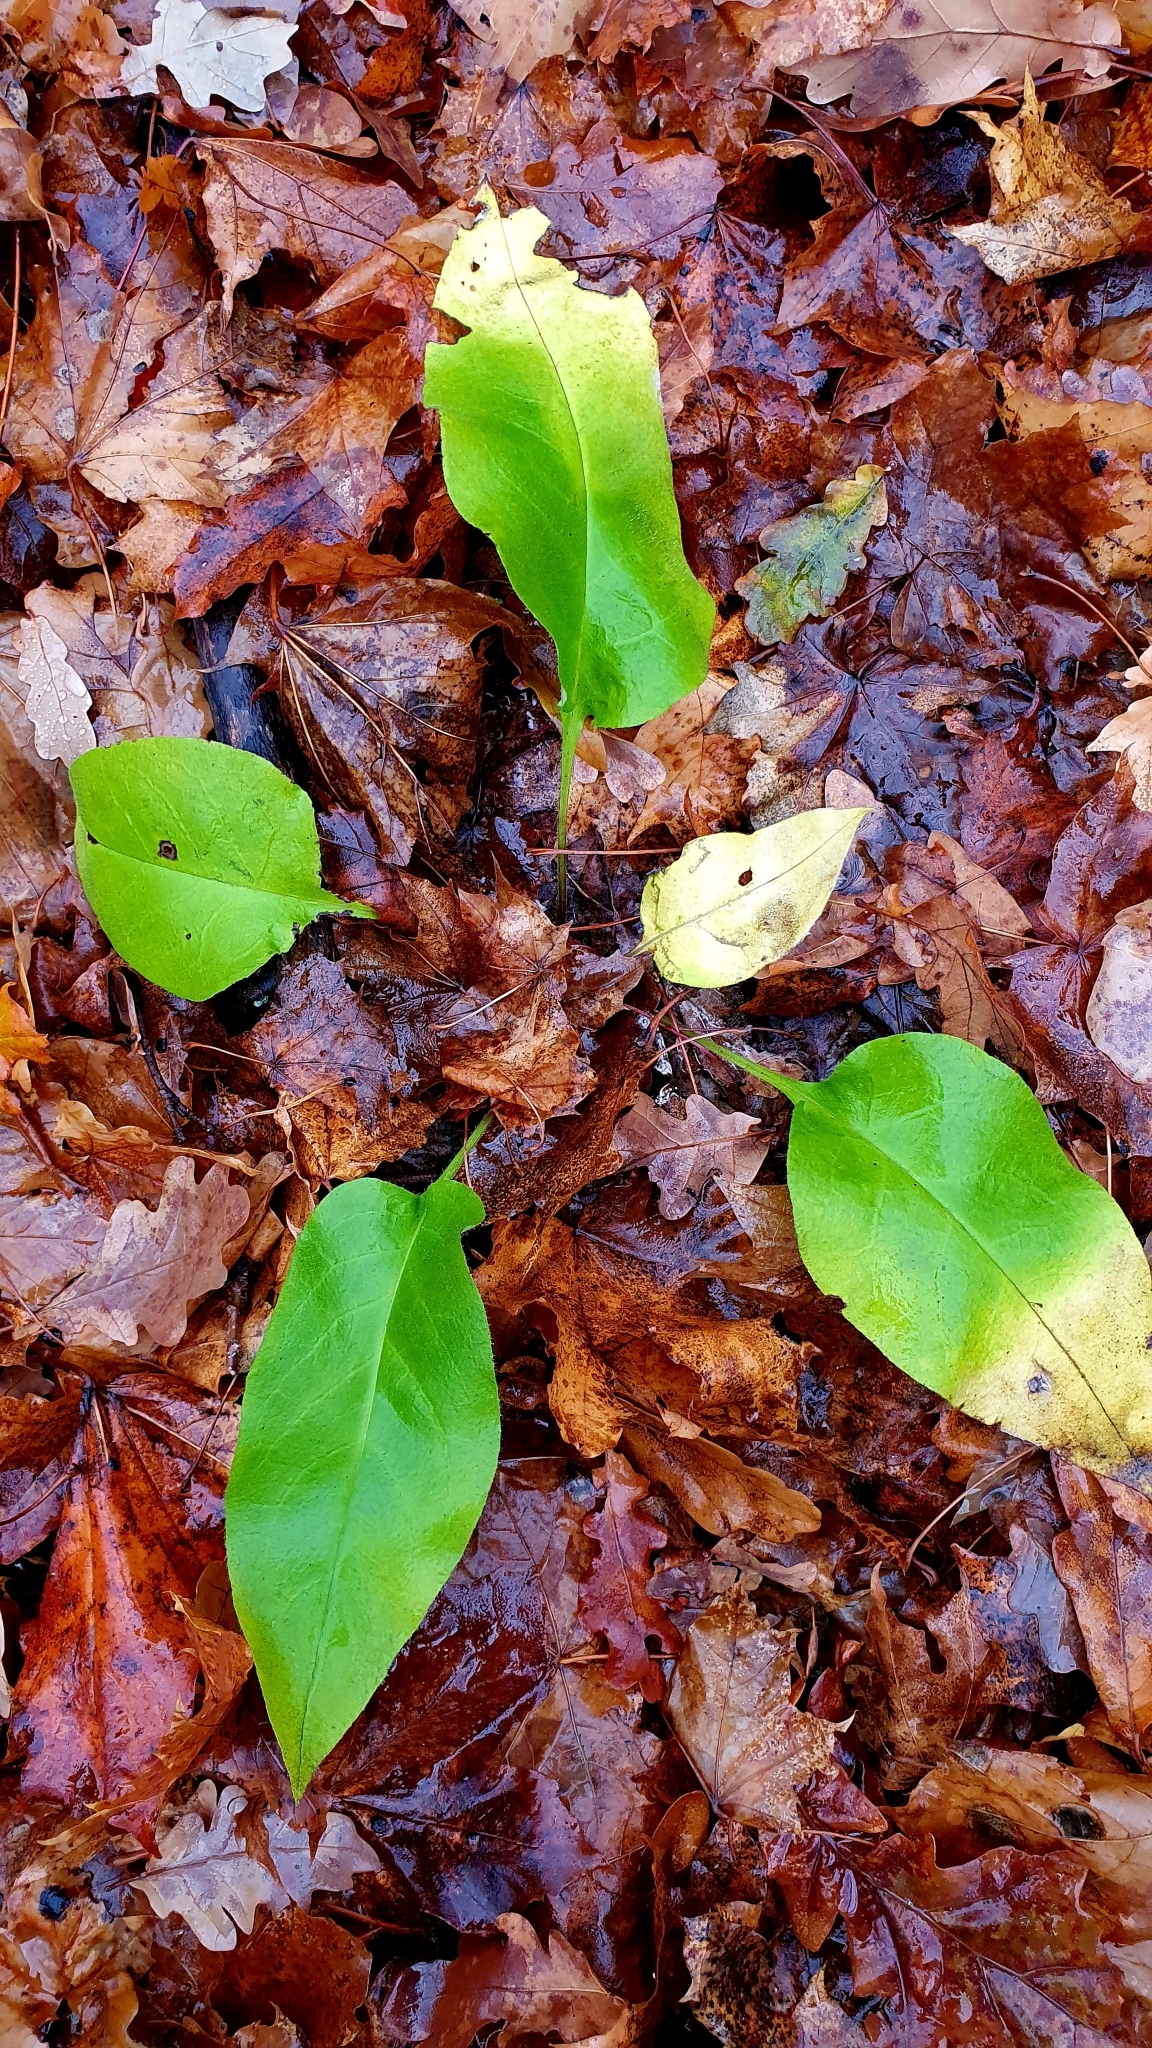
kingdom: Plantae
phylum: Tracheophyta
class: Magnoliopsida
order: Boraginales
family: Boraginaceae
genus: Pulmonaria
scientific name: Pulmonaria obscura
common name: Suffolk lungwort
